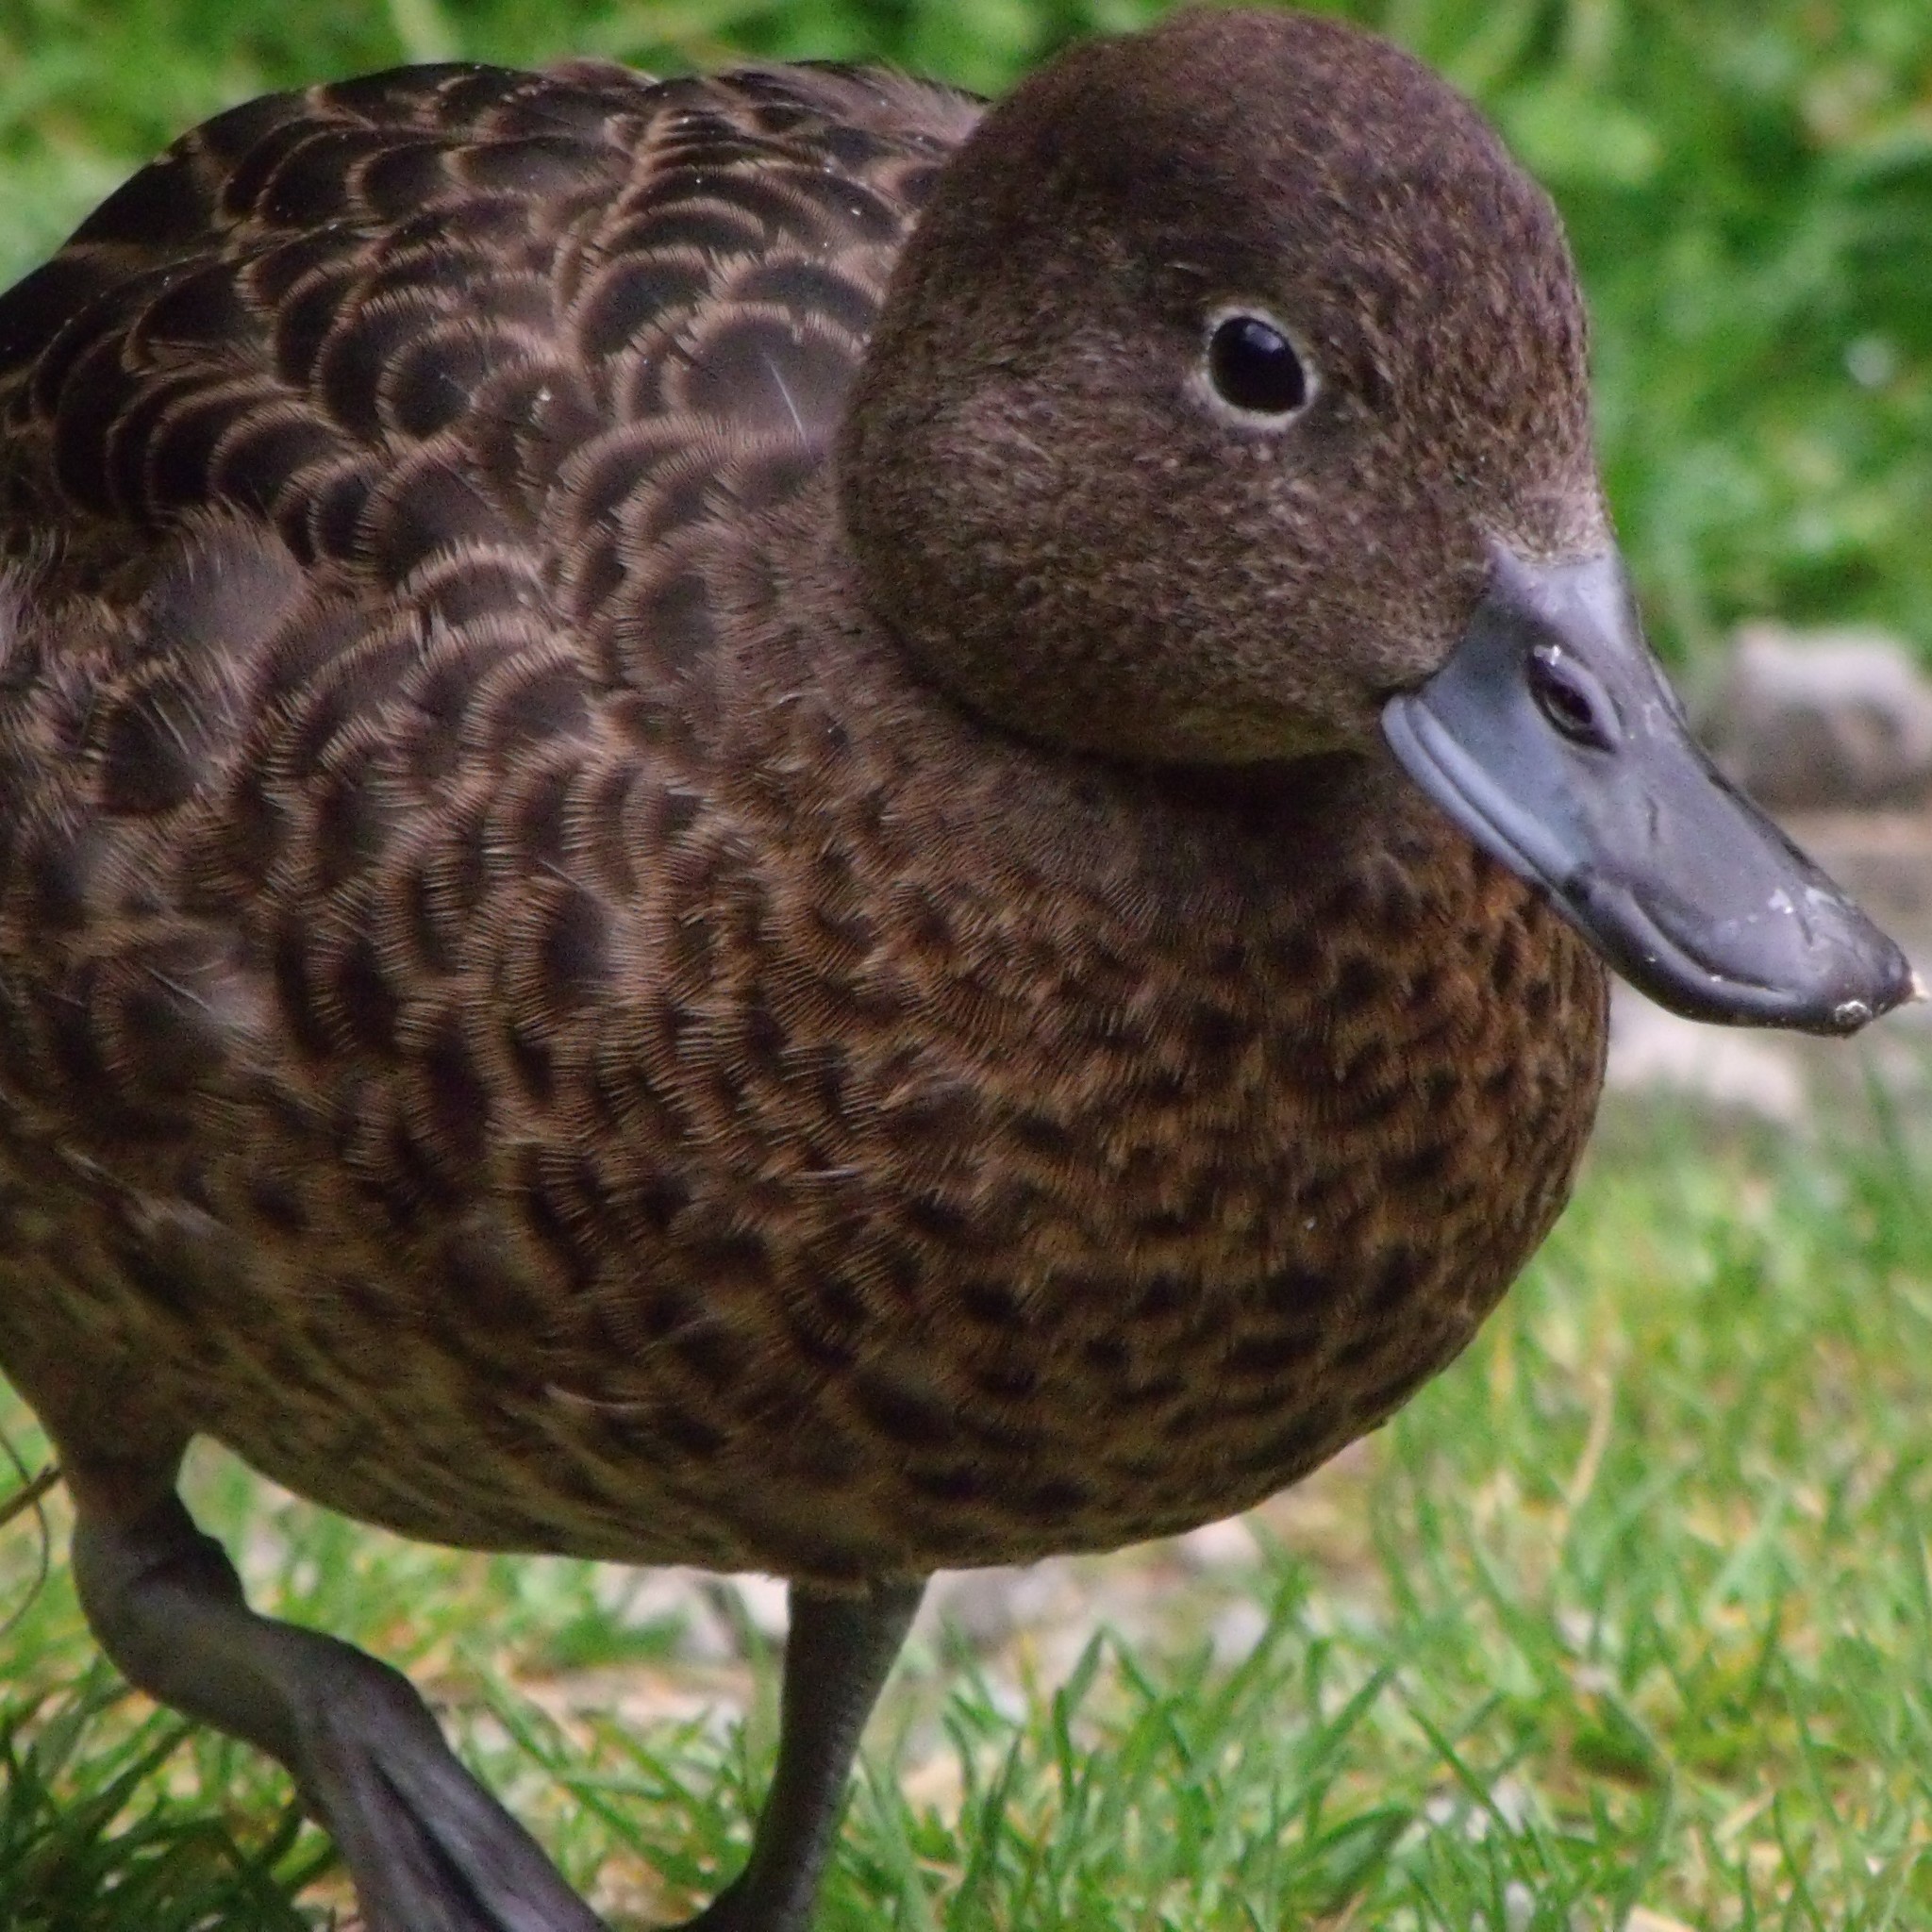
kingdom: Animalia
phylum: Chordata
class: Aves
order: Anseriformes
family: Anatidae
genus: Anas
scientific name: Anas chlorotis
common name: Brown teal
